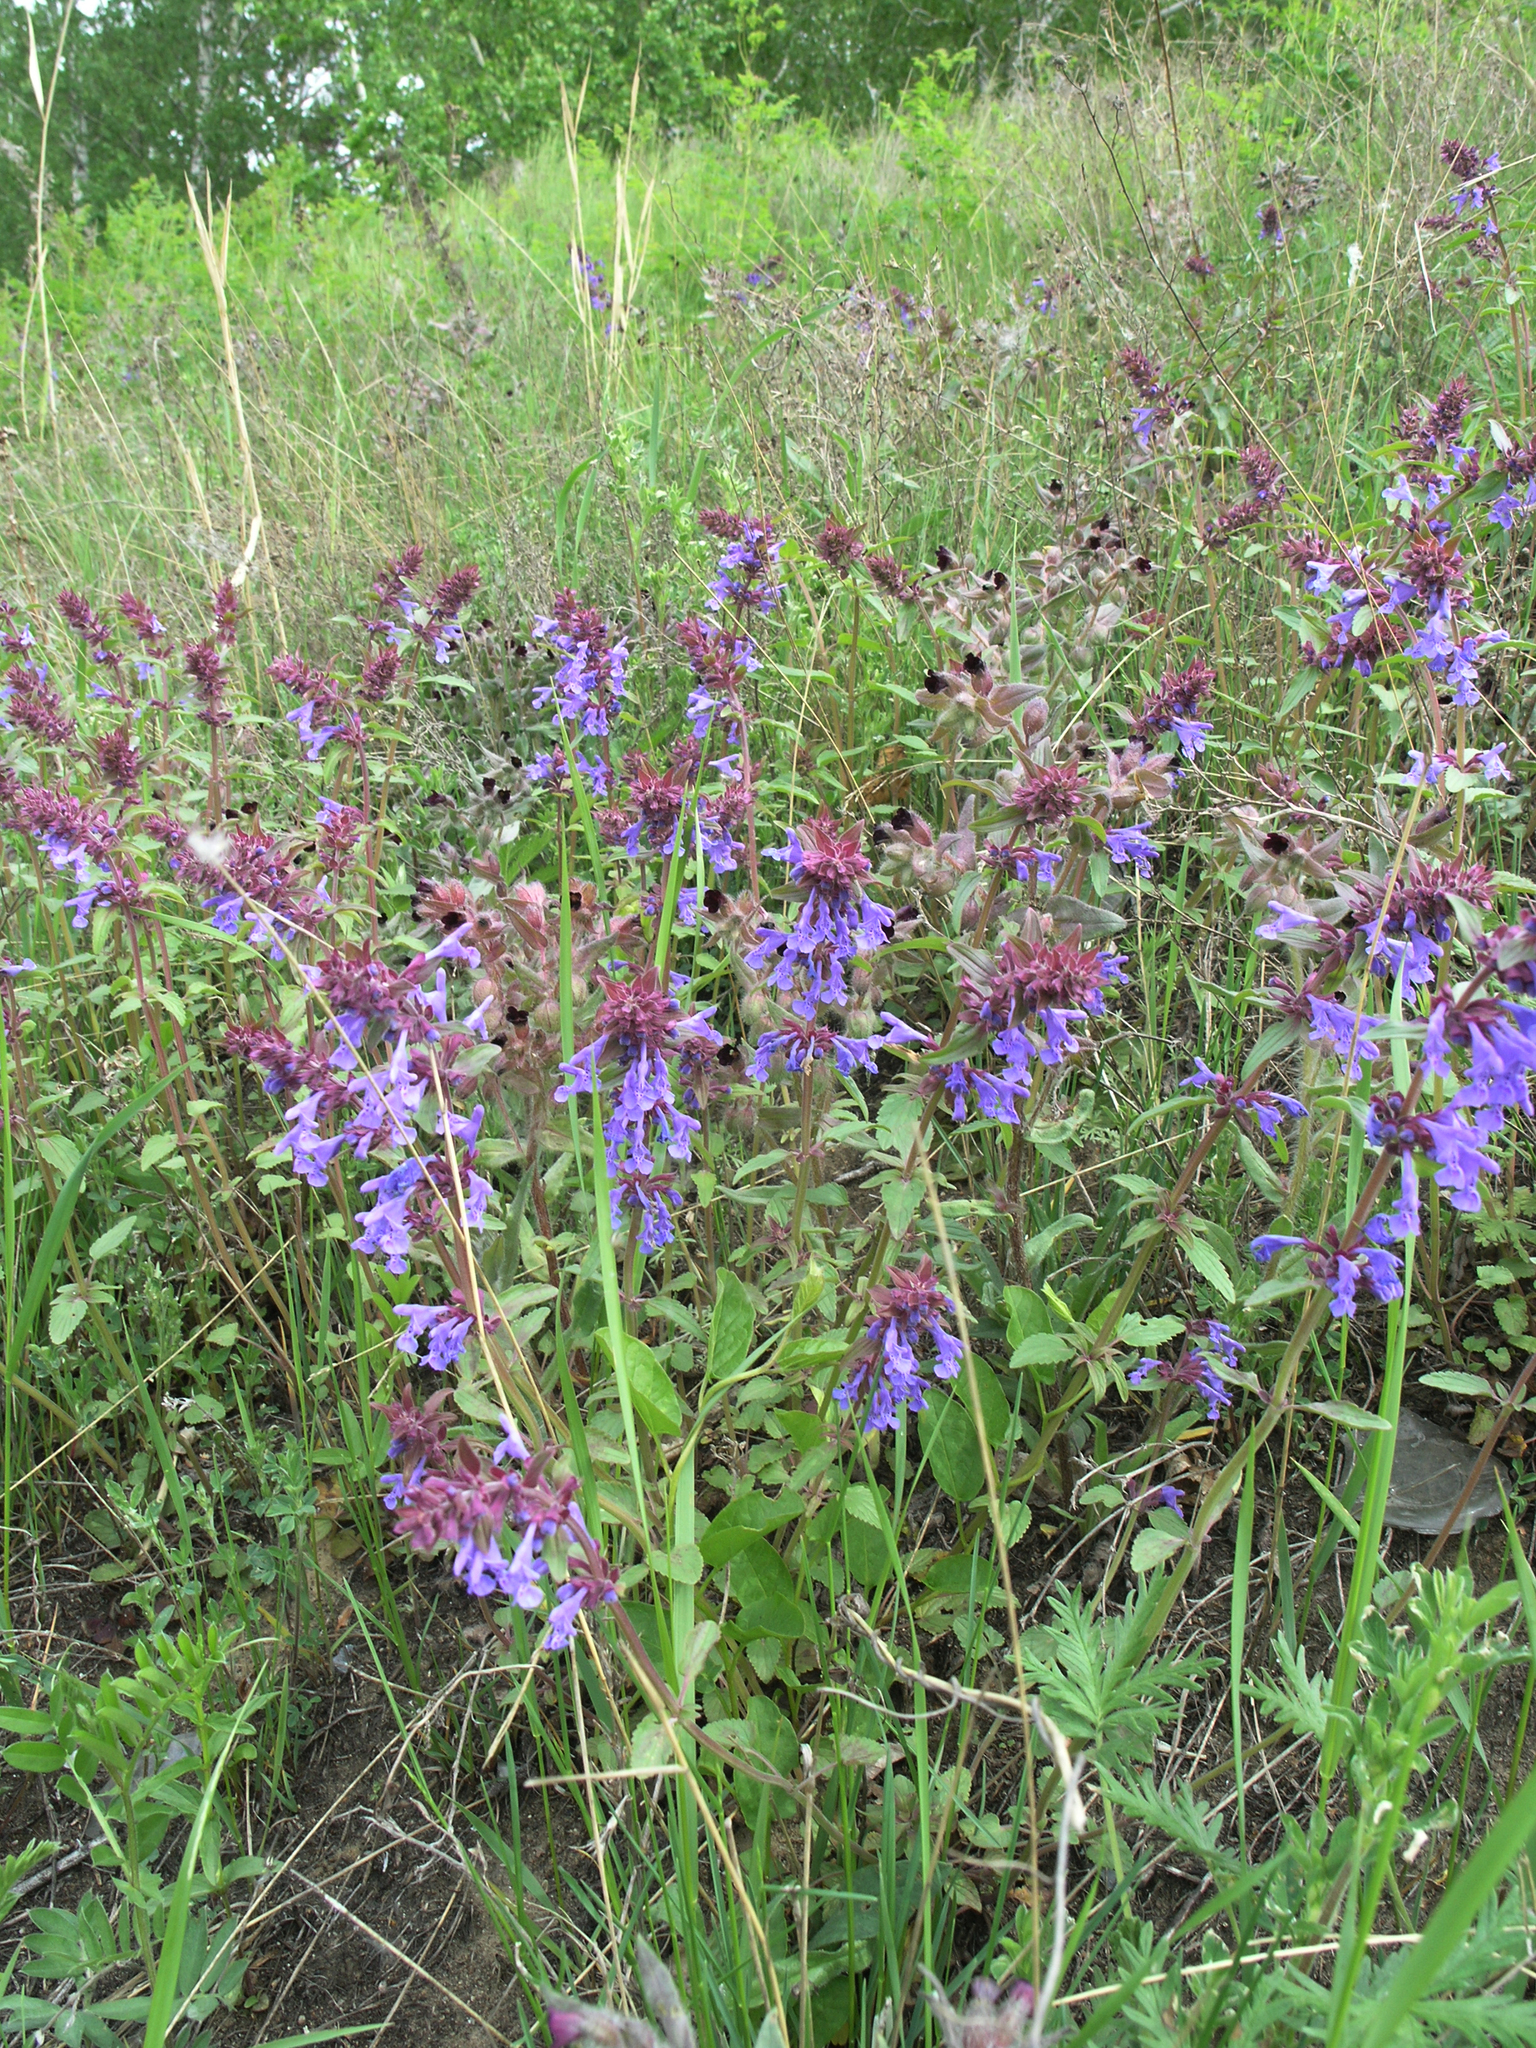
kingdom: Plantae
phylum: Tracheophyta
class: Magnoliopsida
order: Lamiales
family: Lamiaceae
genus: Dracocephalum
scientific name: Dracocephalum nutans
